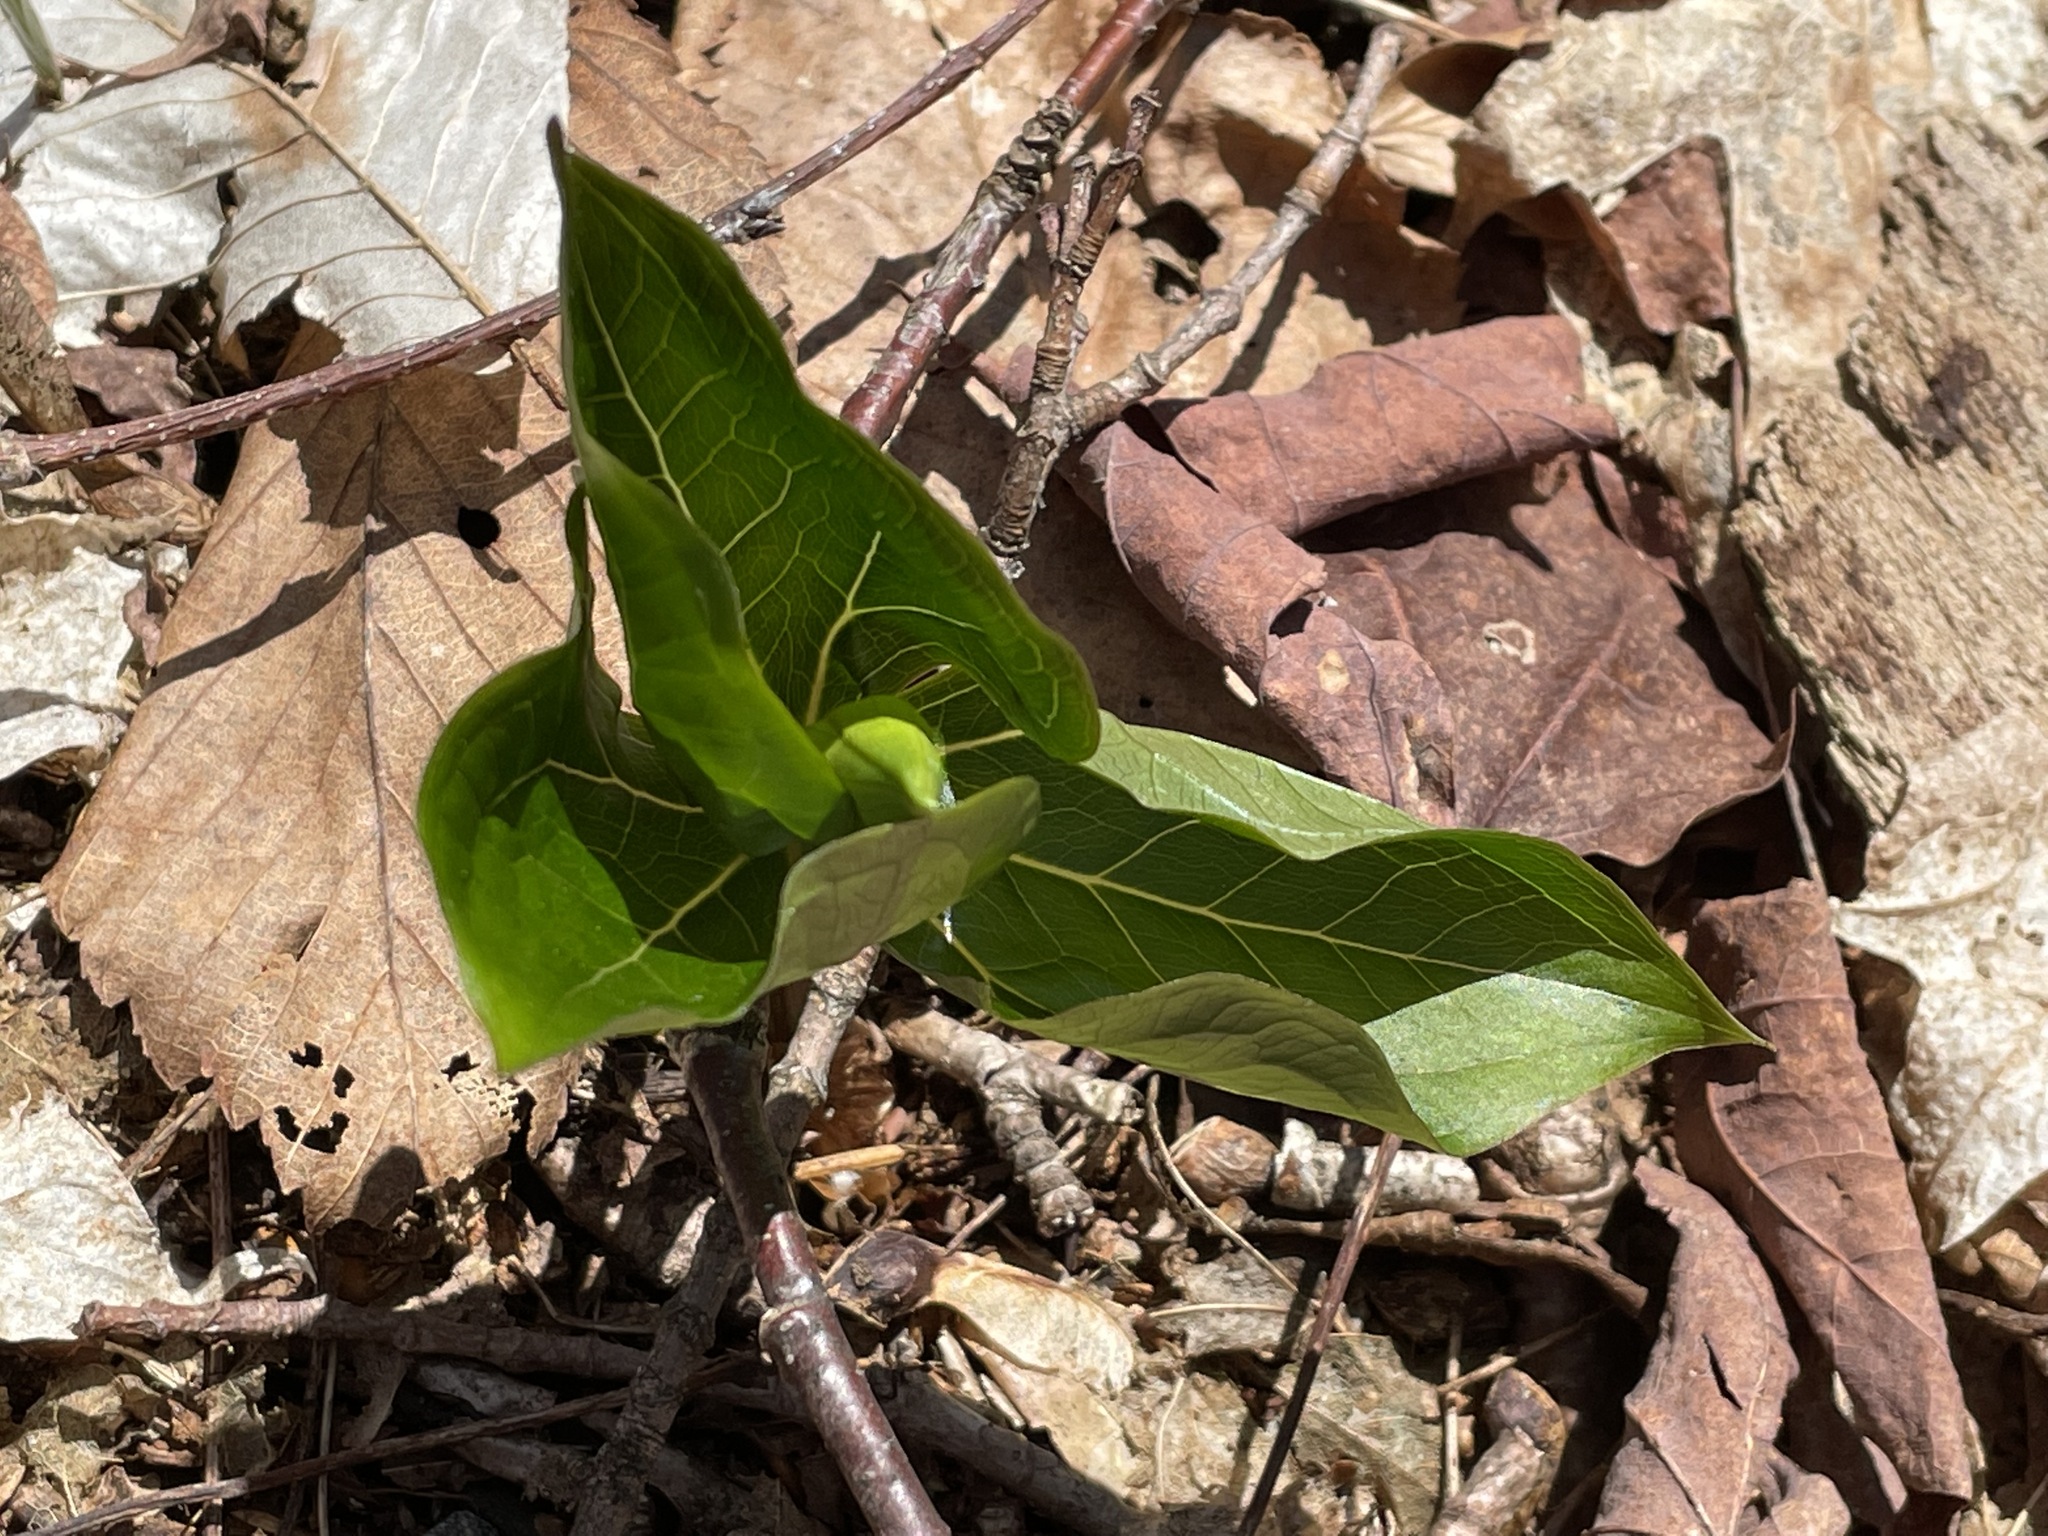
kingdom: Plantae
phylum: Tracheophyta
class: Liliopsida
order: Liliales
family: Melanthiaceae
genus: Trillium
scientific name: Trillium erectum
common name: Purple trillium
